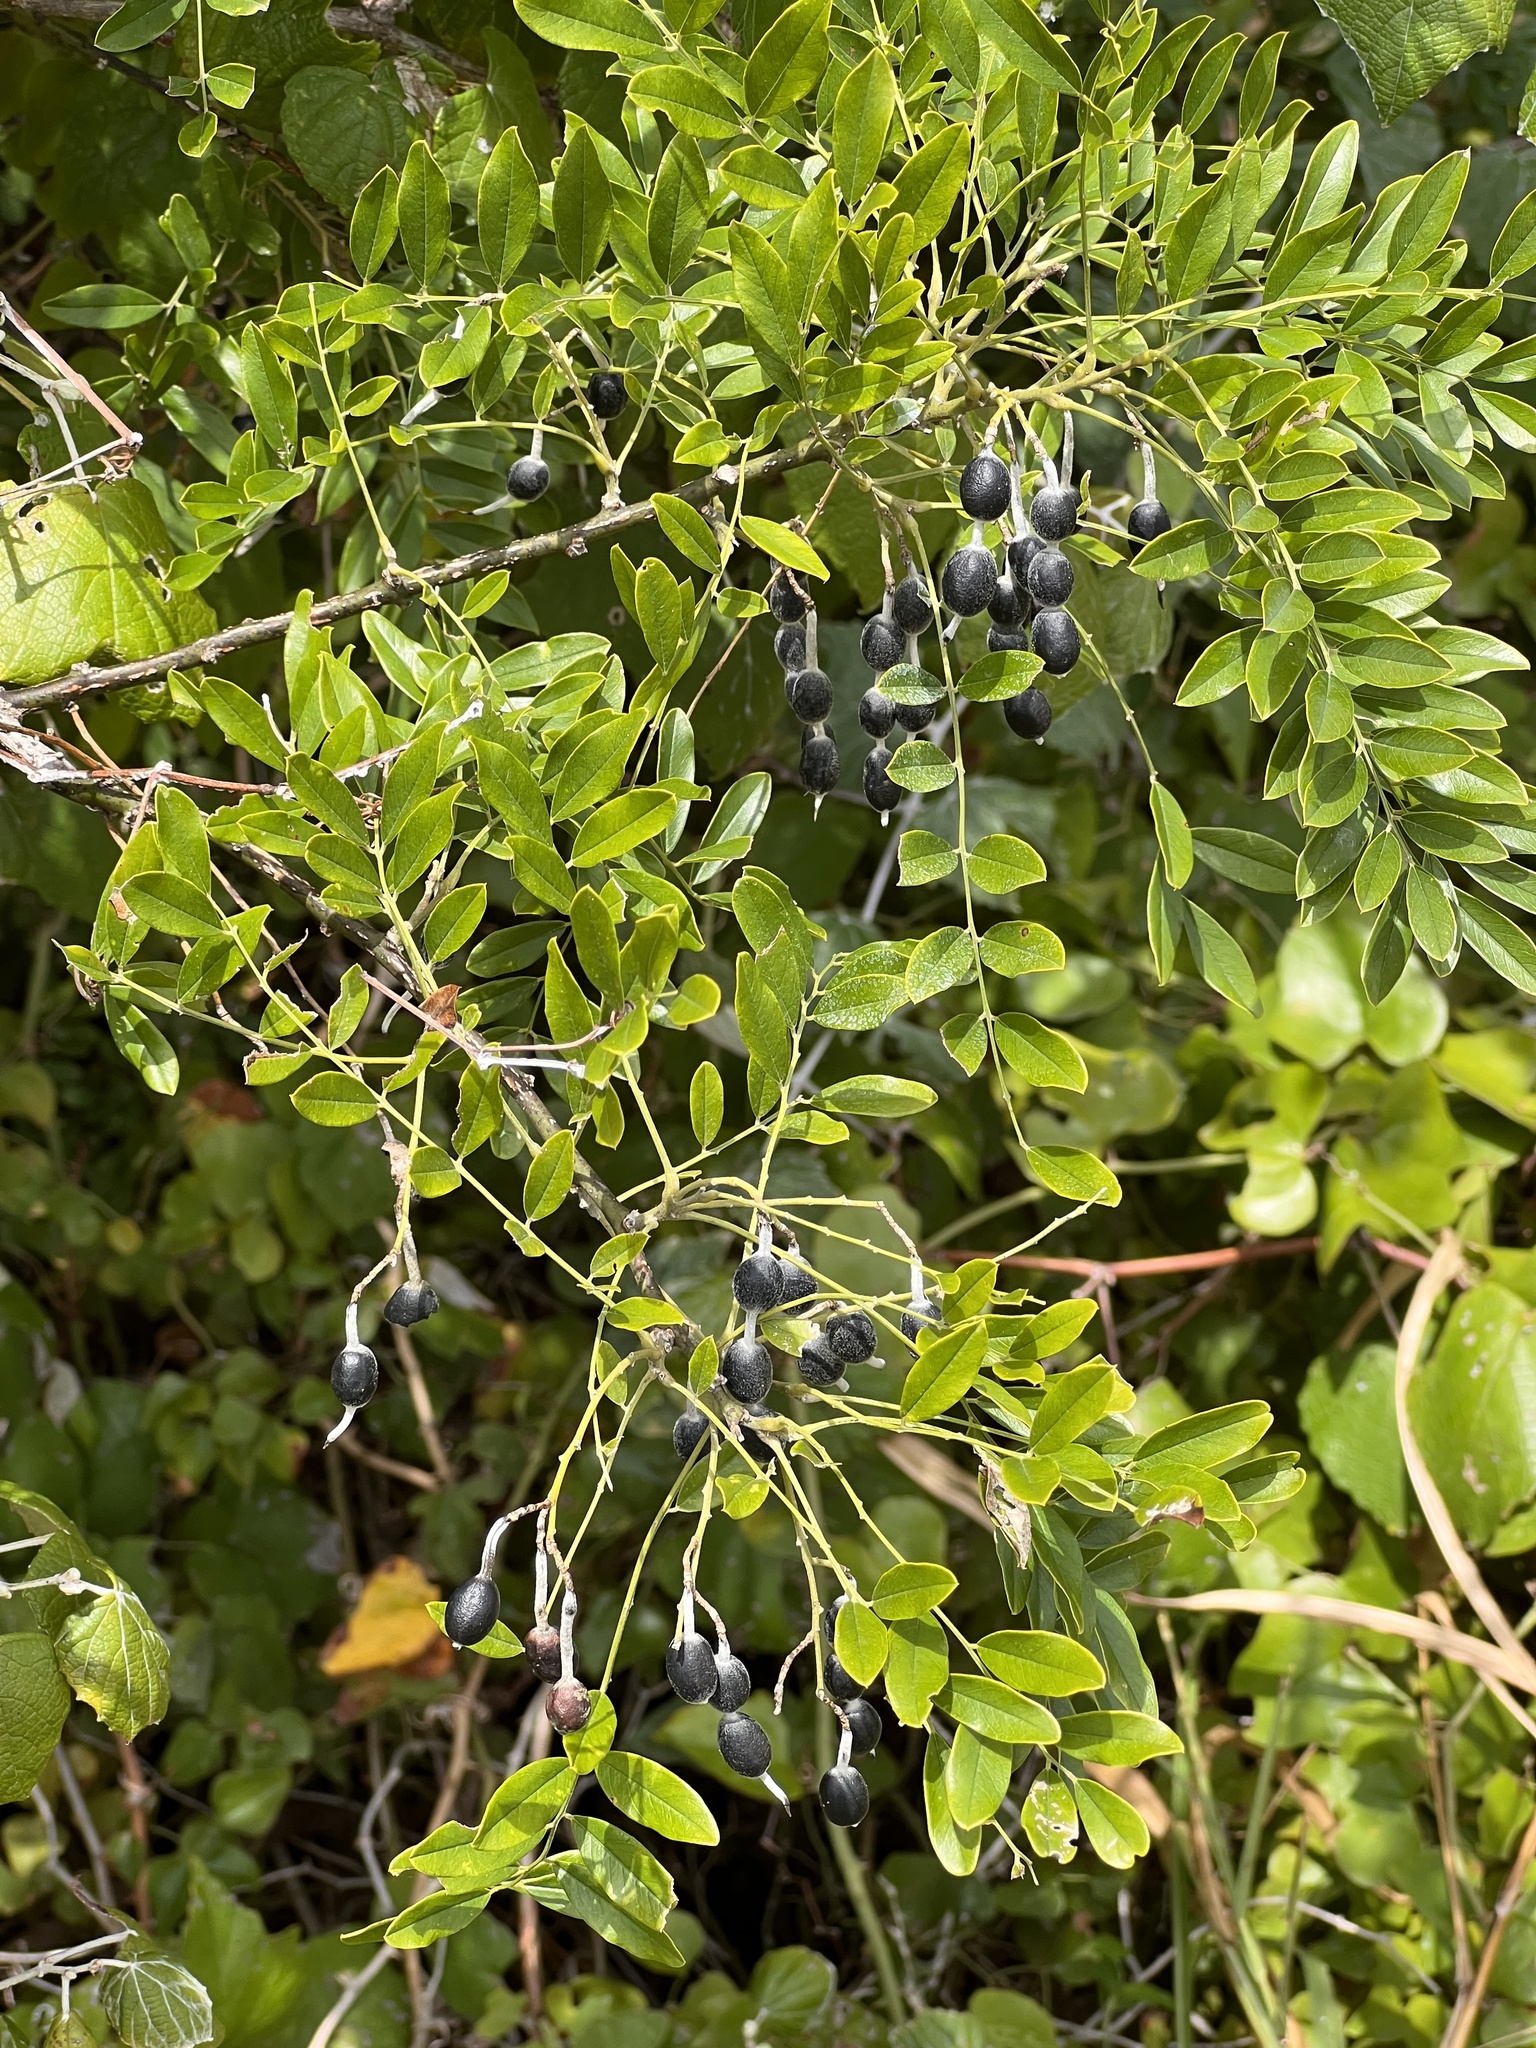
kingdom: Plantae
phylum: Tracheophyta
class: Magnoliopsida
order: Fabales
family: Fabaceae
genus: Styphnolobium
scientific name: Styphnolobium affine
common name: Texas sophora
